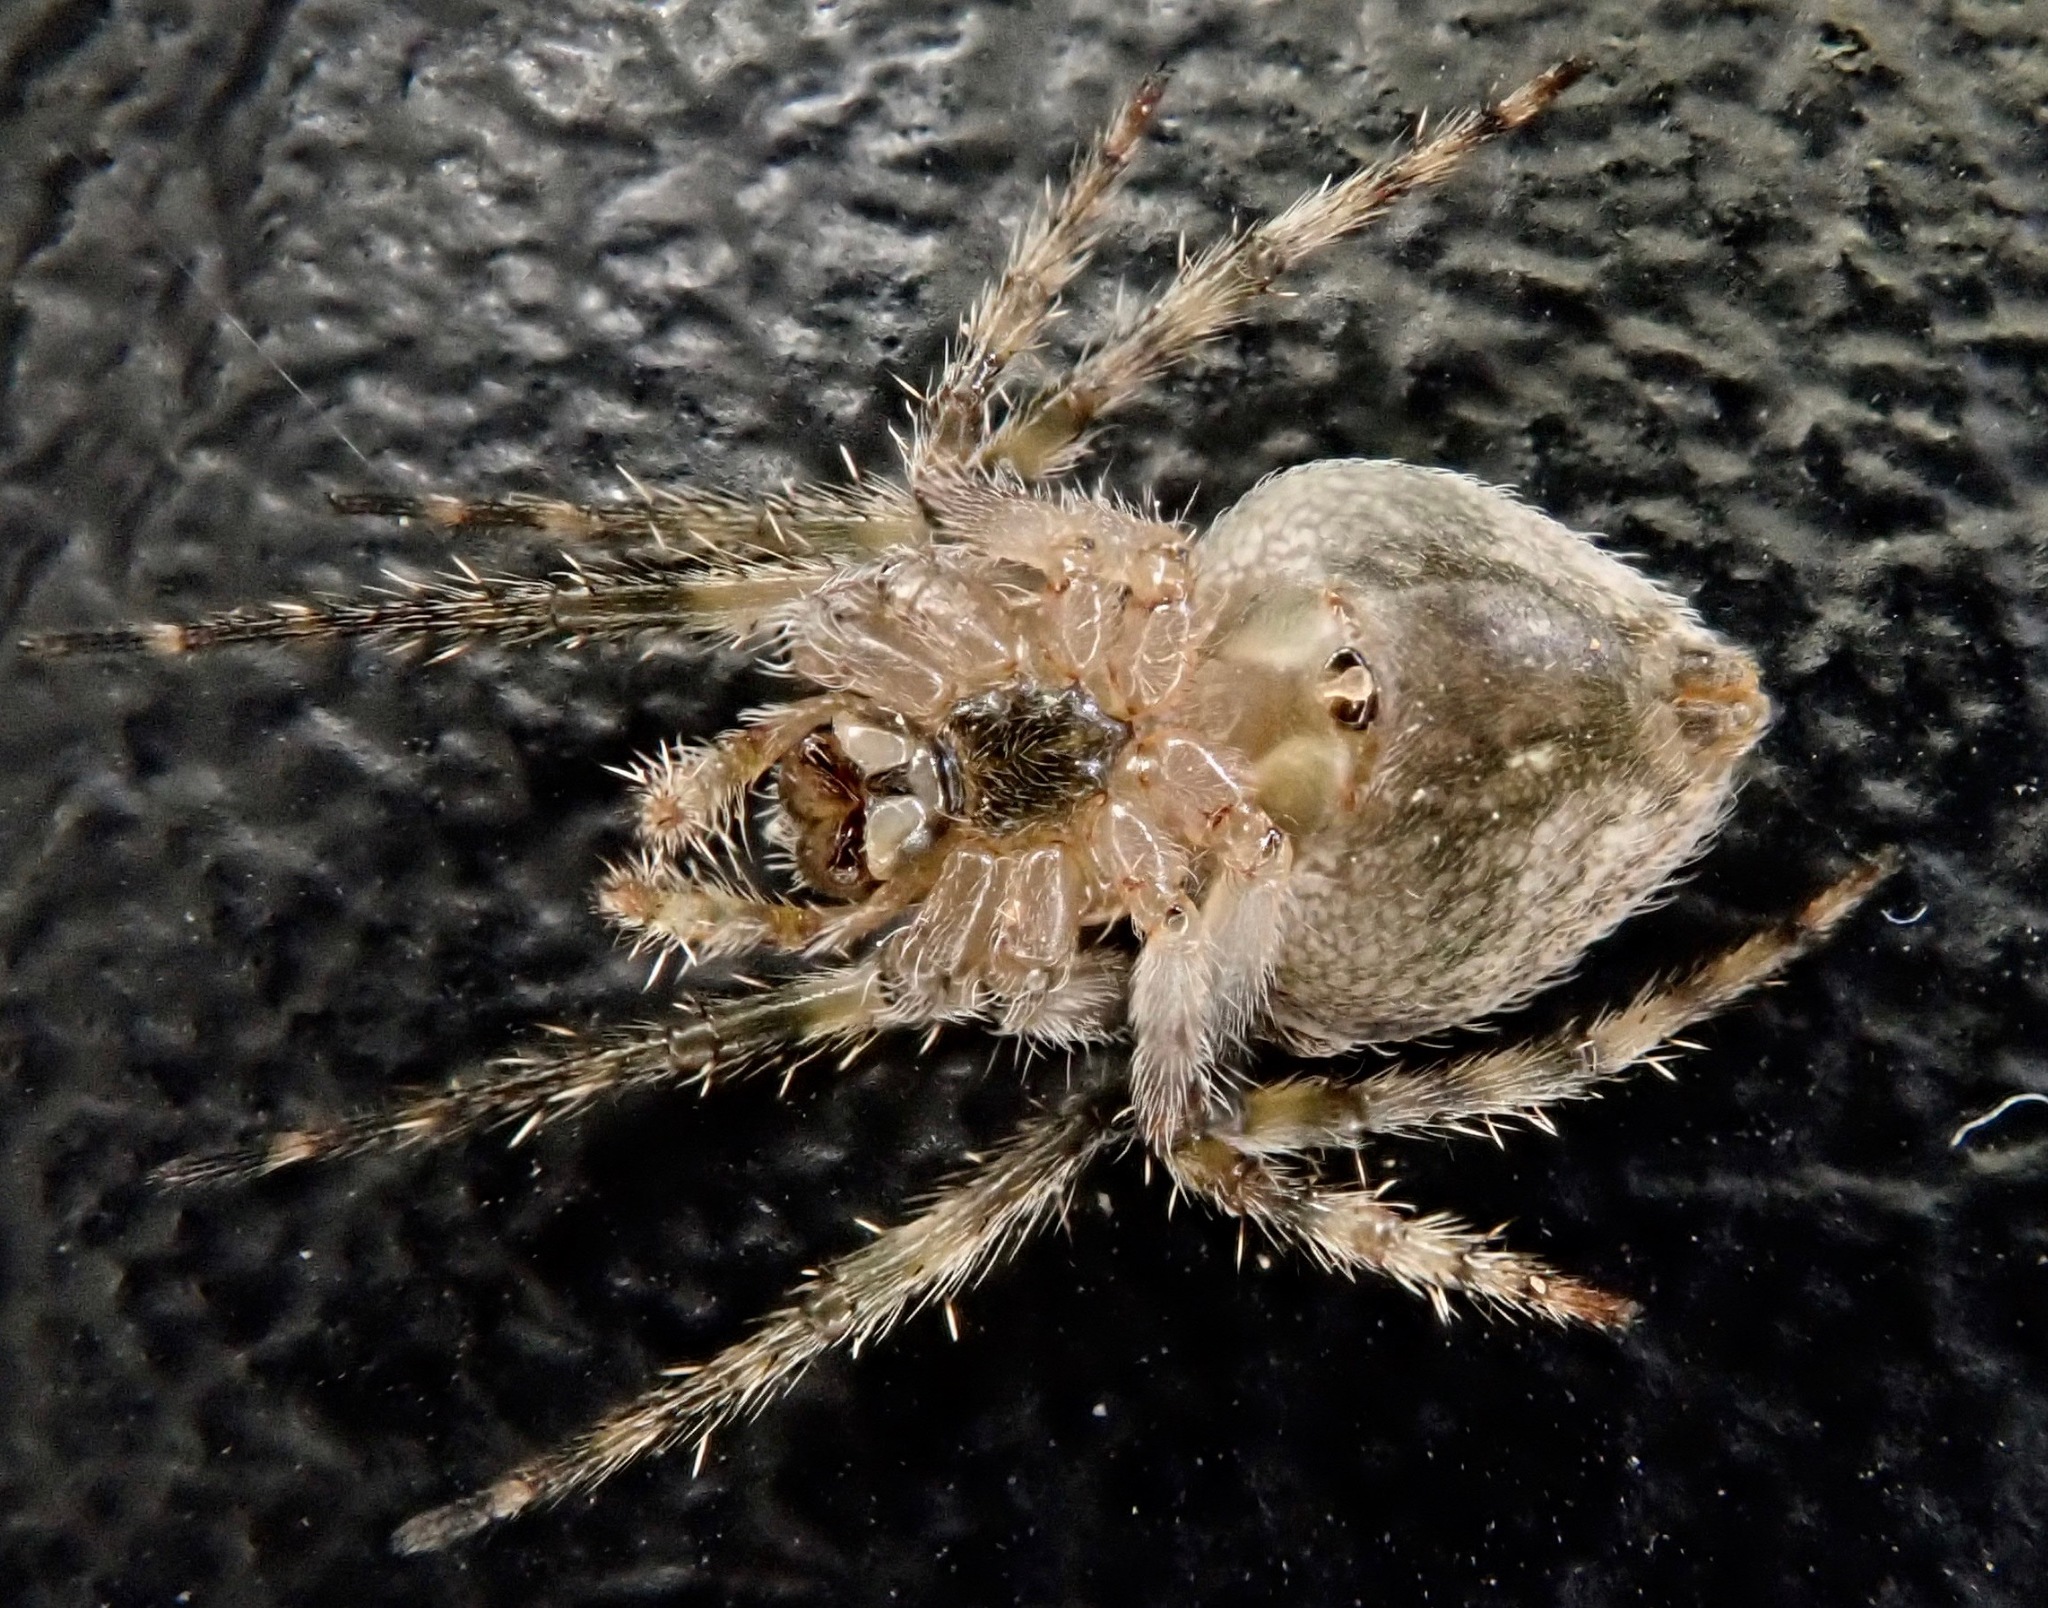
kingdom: Animalia
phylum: Arthropoda
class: Arachnida
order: Araneae
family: Araneidae
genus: Cryptaranea
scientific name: Cryptaranea albolineata
